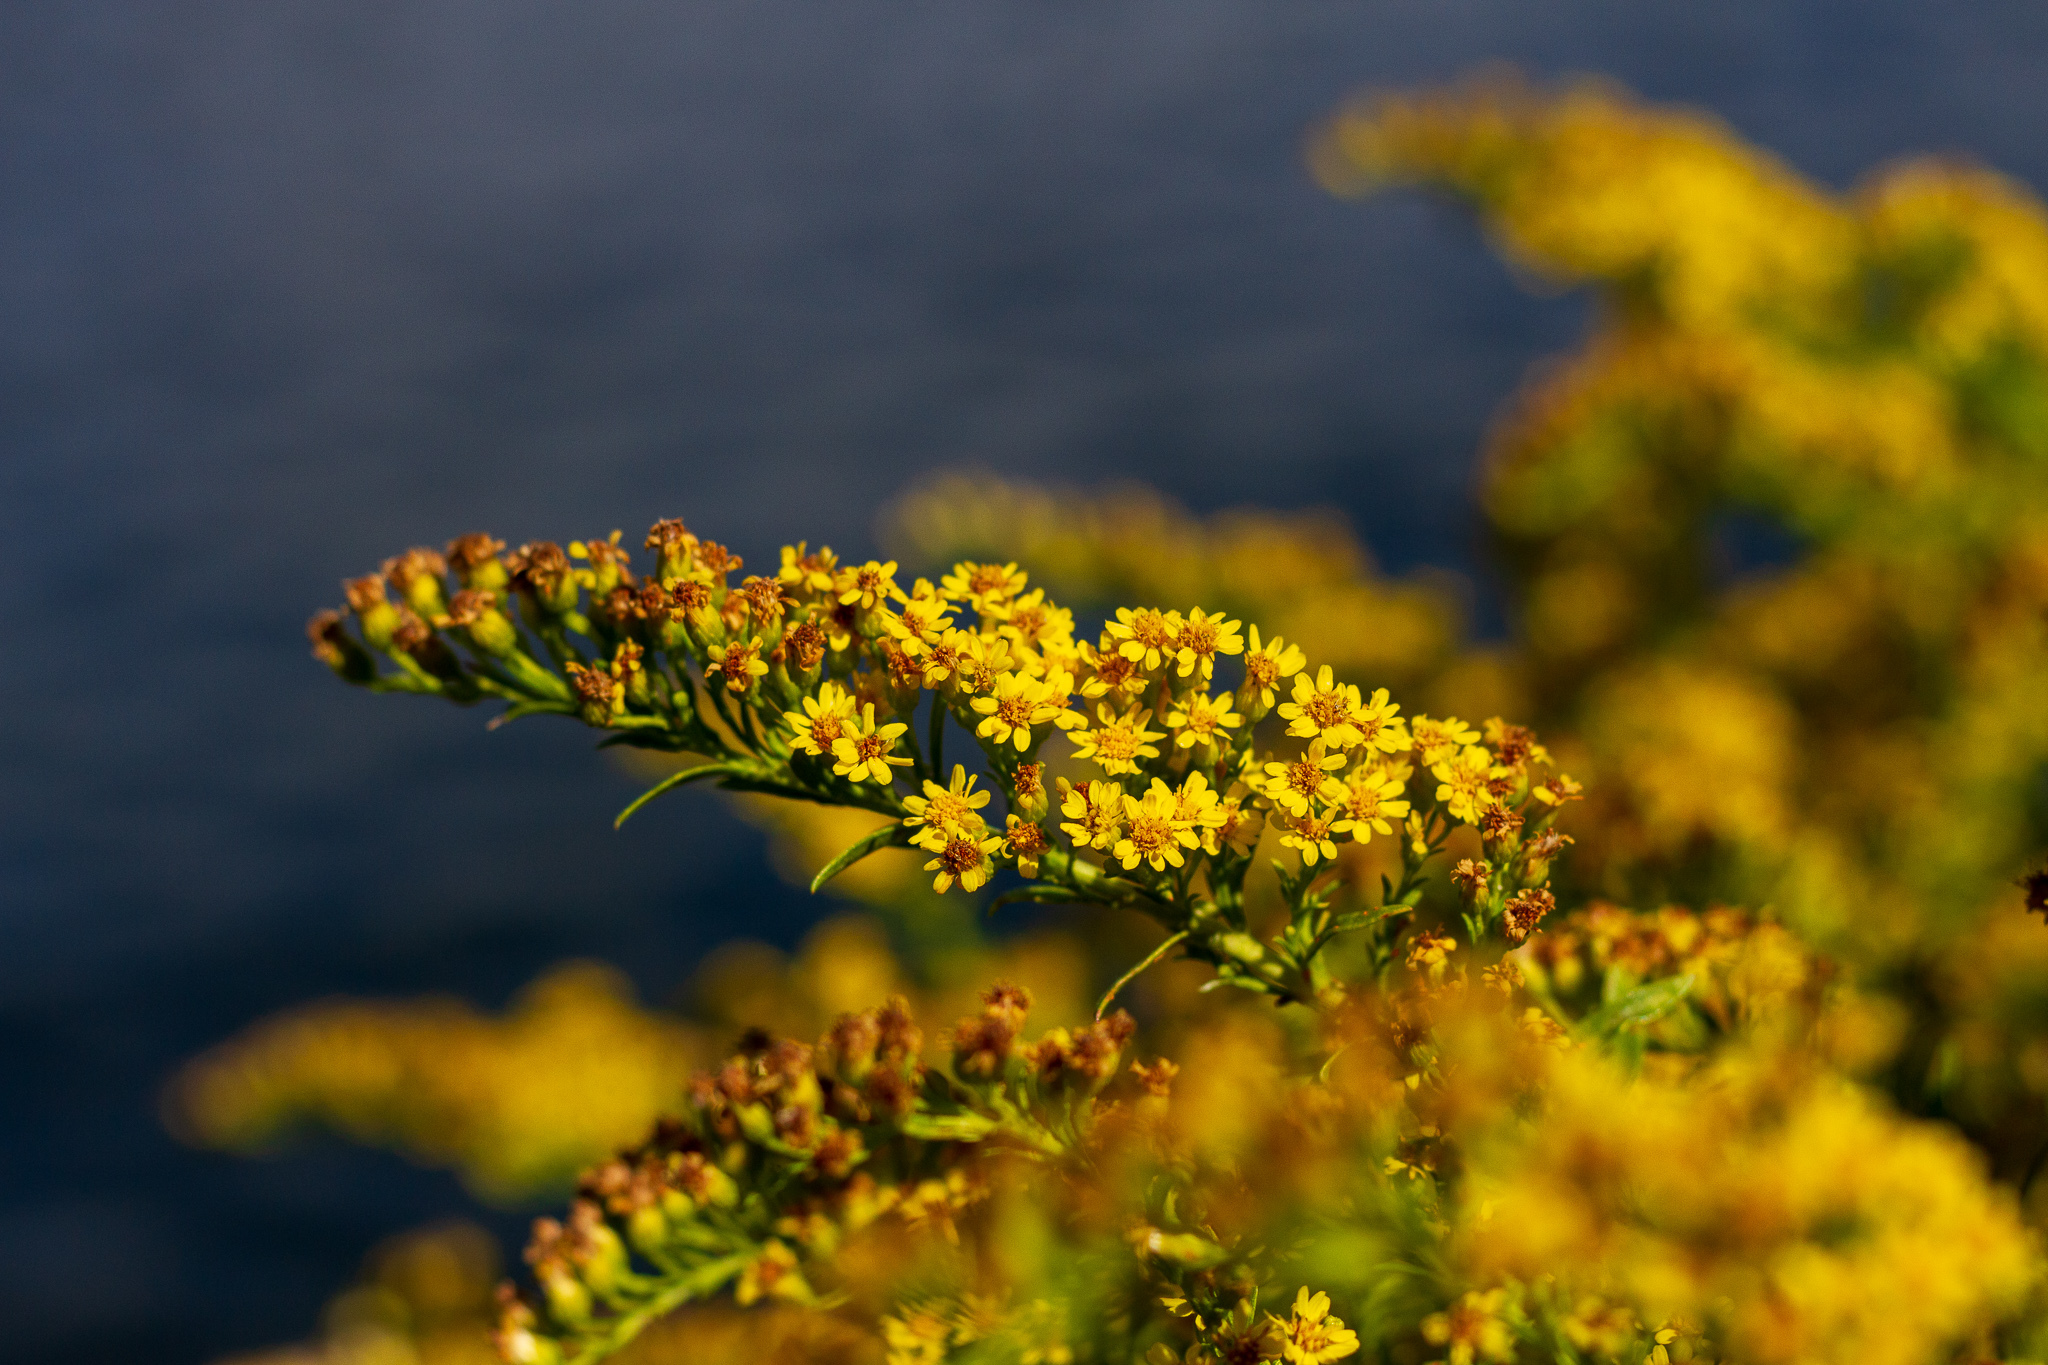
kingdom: Plantae
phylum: Tracheophyta
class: Magnoliopsida
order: Asterales
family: Asteraceae
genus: Solidago
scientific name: Solidago sempervirens
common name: Salt-marsh goldenrod
